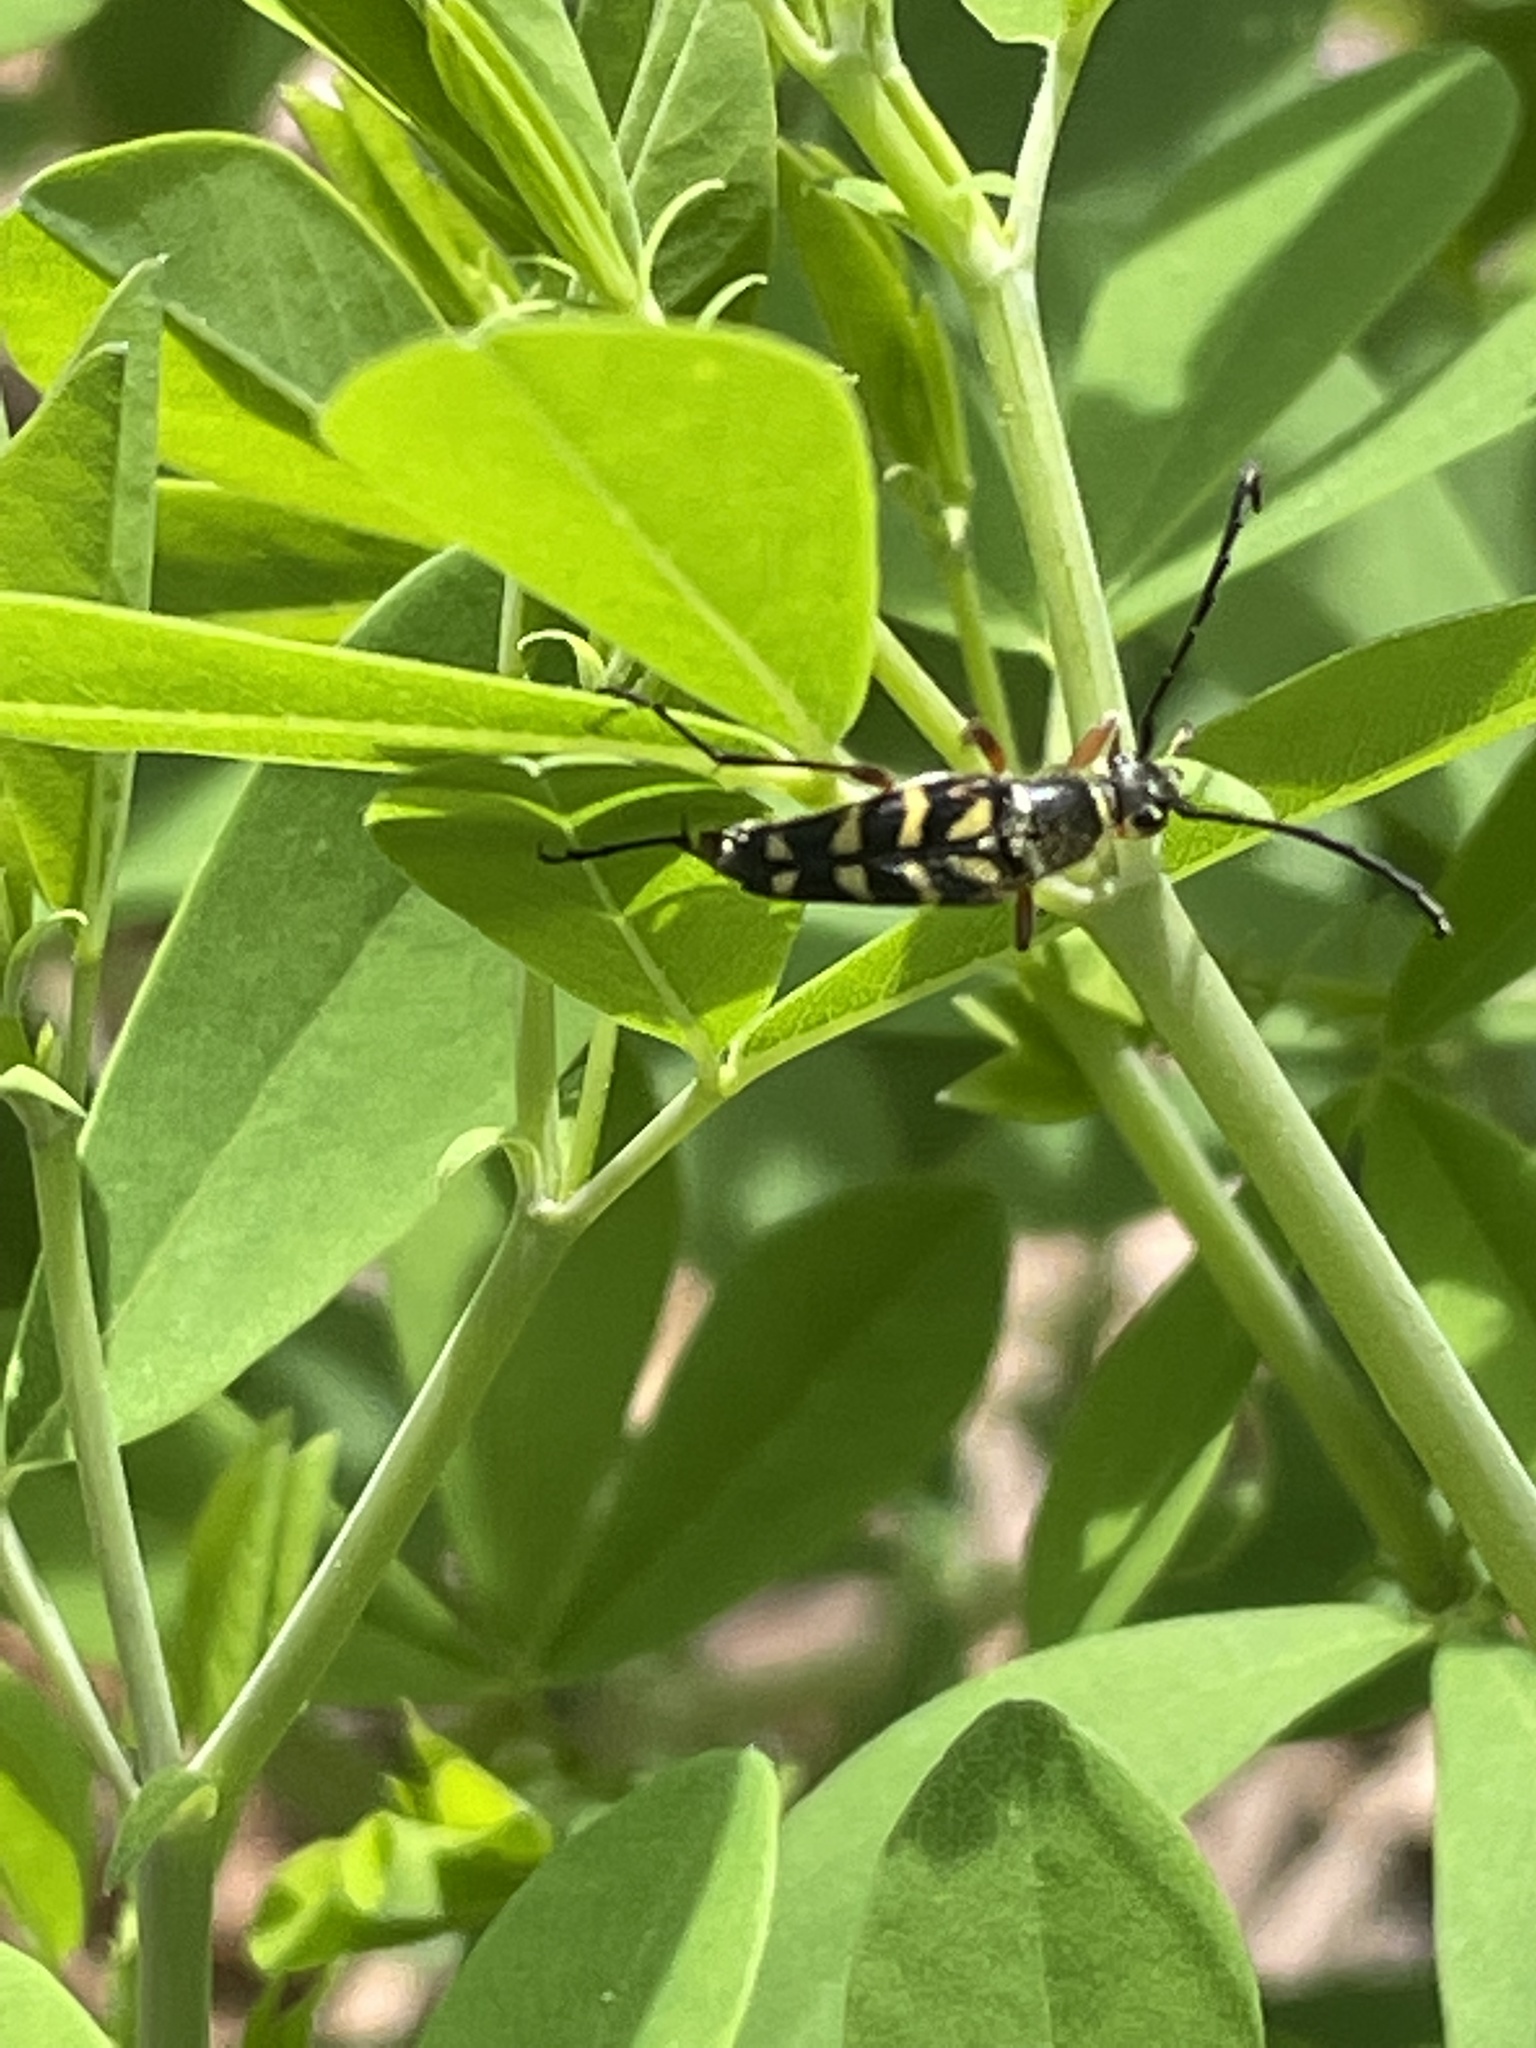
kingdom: Animalia
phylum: Arthropoda
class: Insecta
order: Coleoptera
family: Cerambycidae
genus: Typocerus
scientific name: Typocerus zebra
